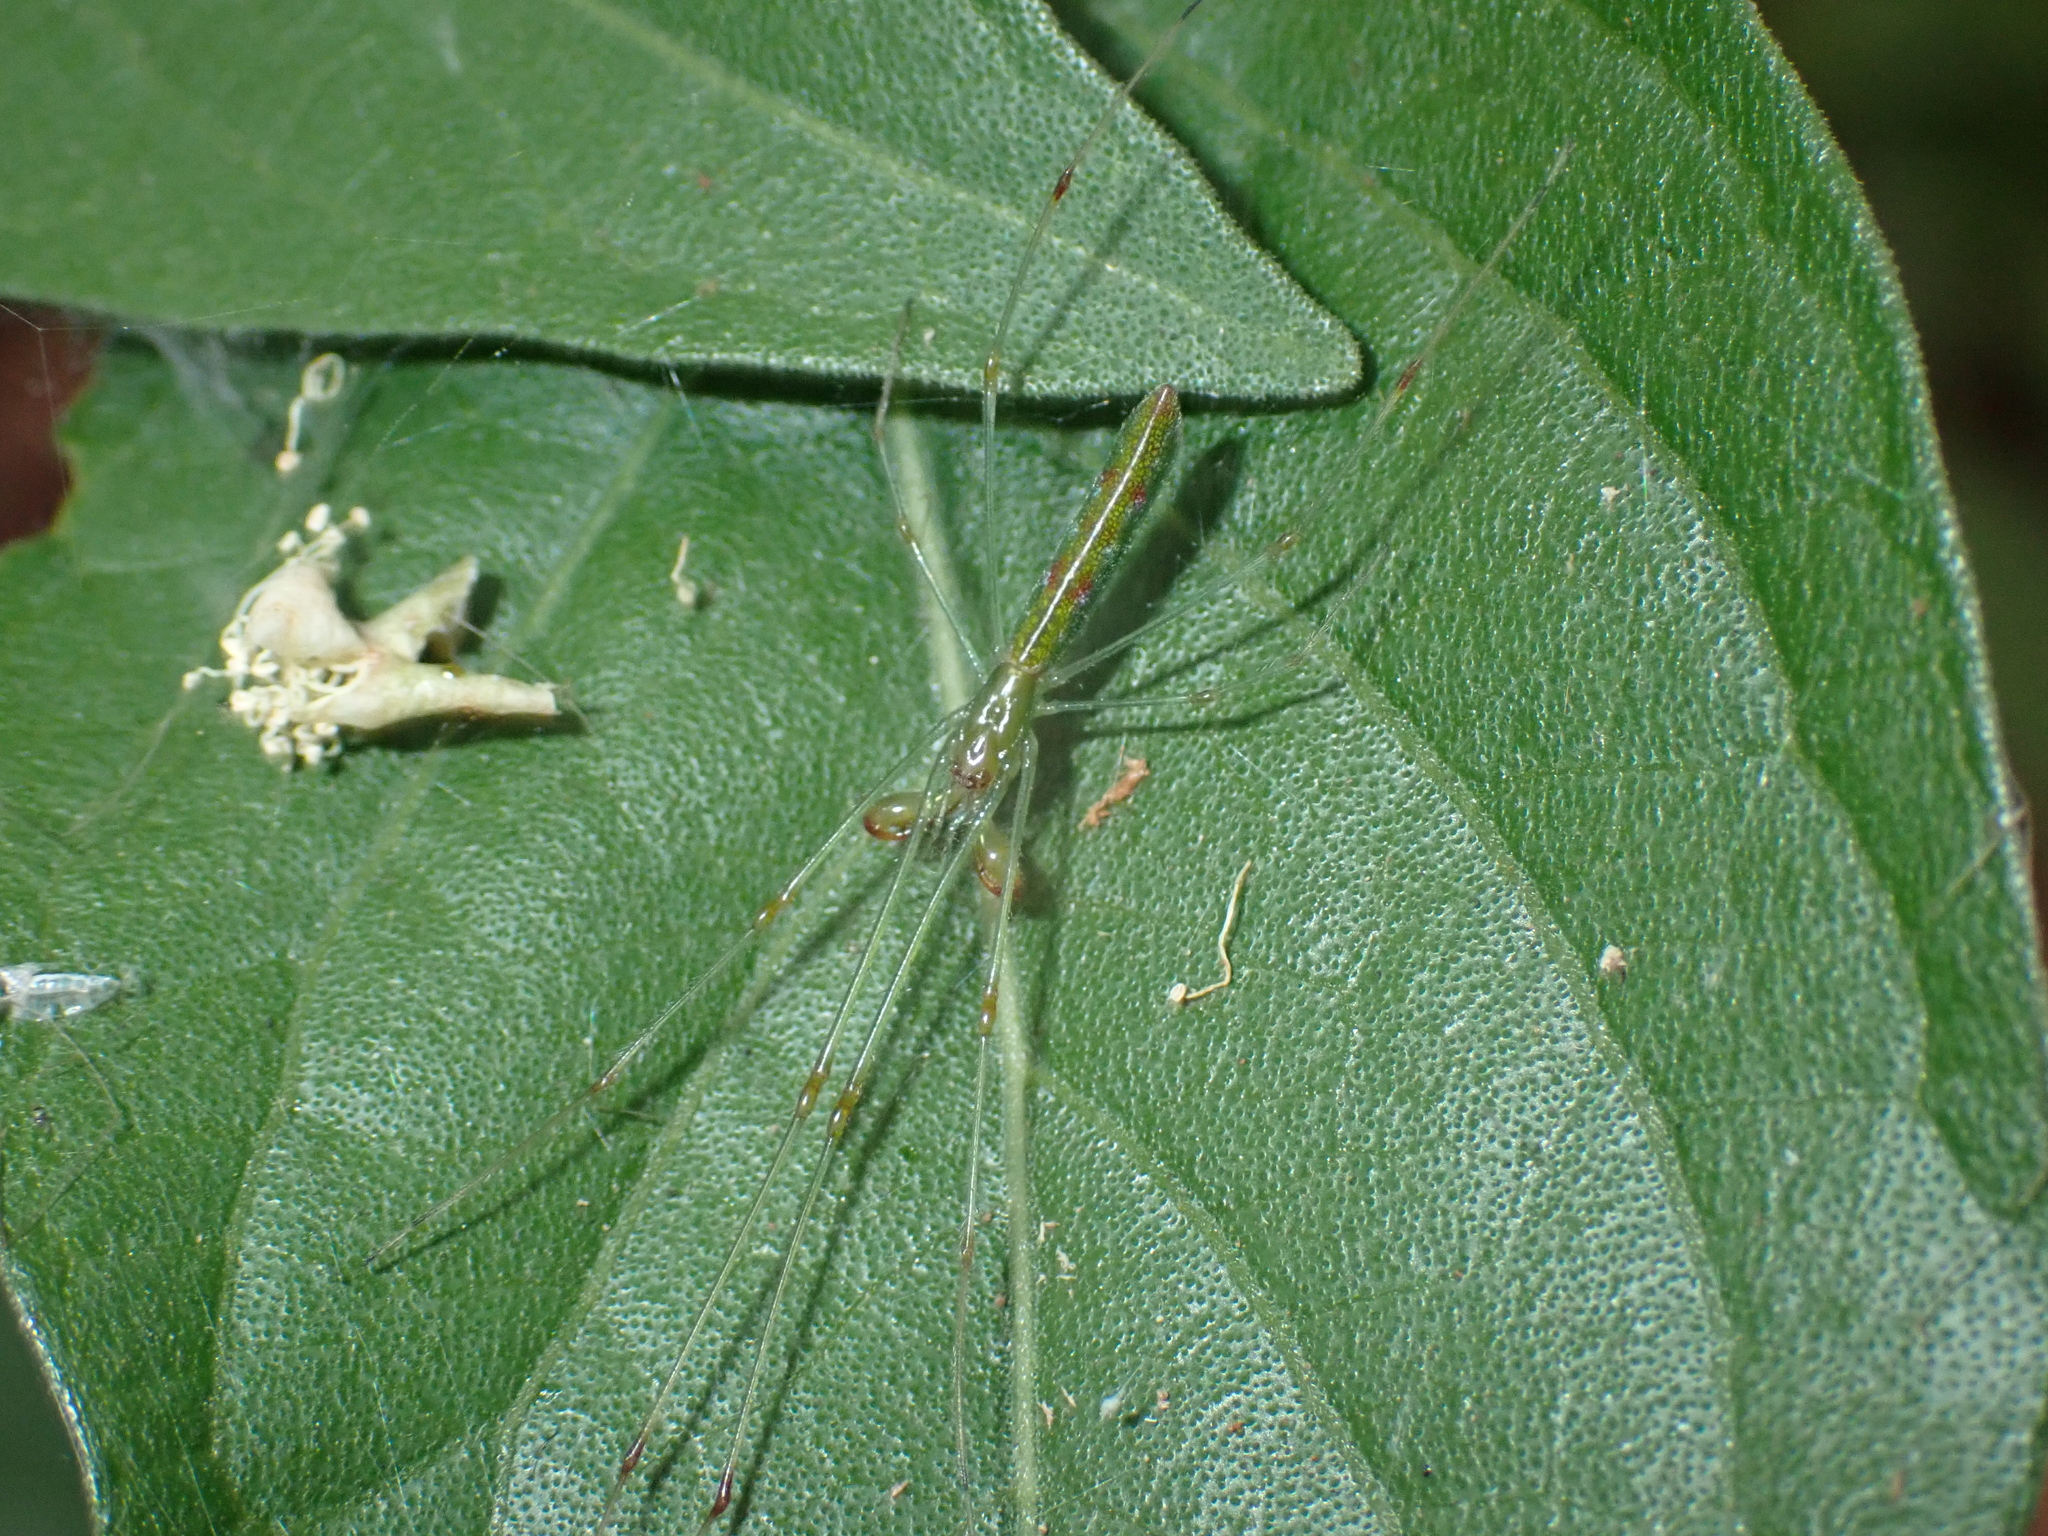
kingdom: Animalia
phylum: Arthropoda
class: Arachnida
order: Araneae
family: Tetragnathidae
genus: Tetragnatha
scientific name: Tetragnatha hasselti
